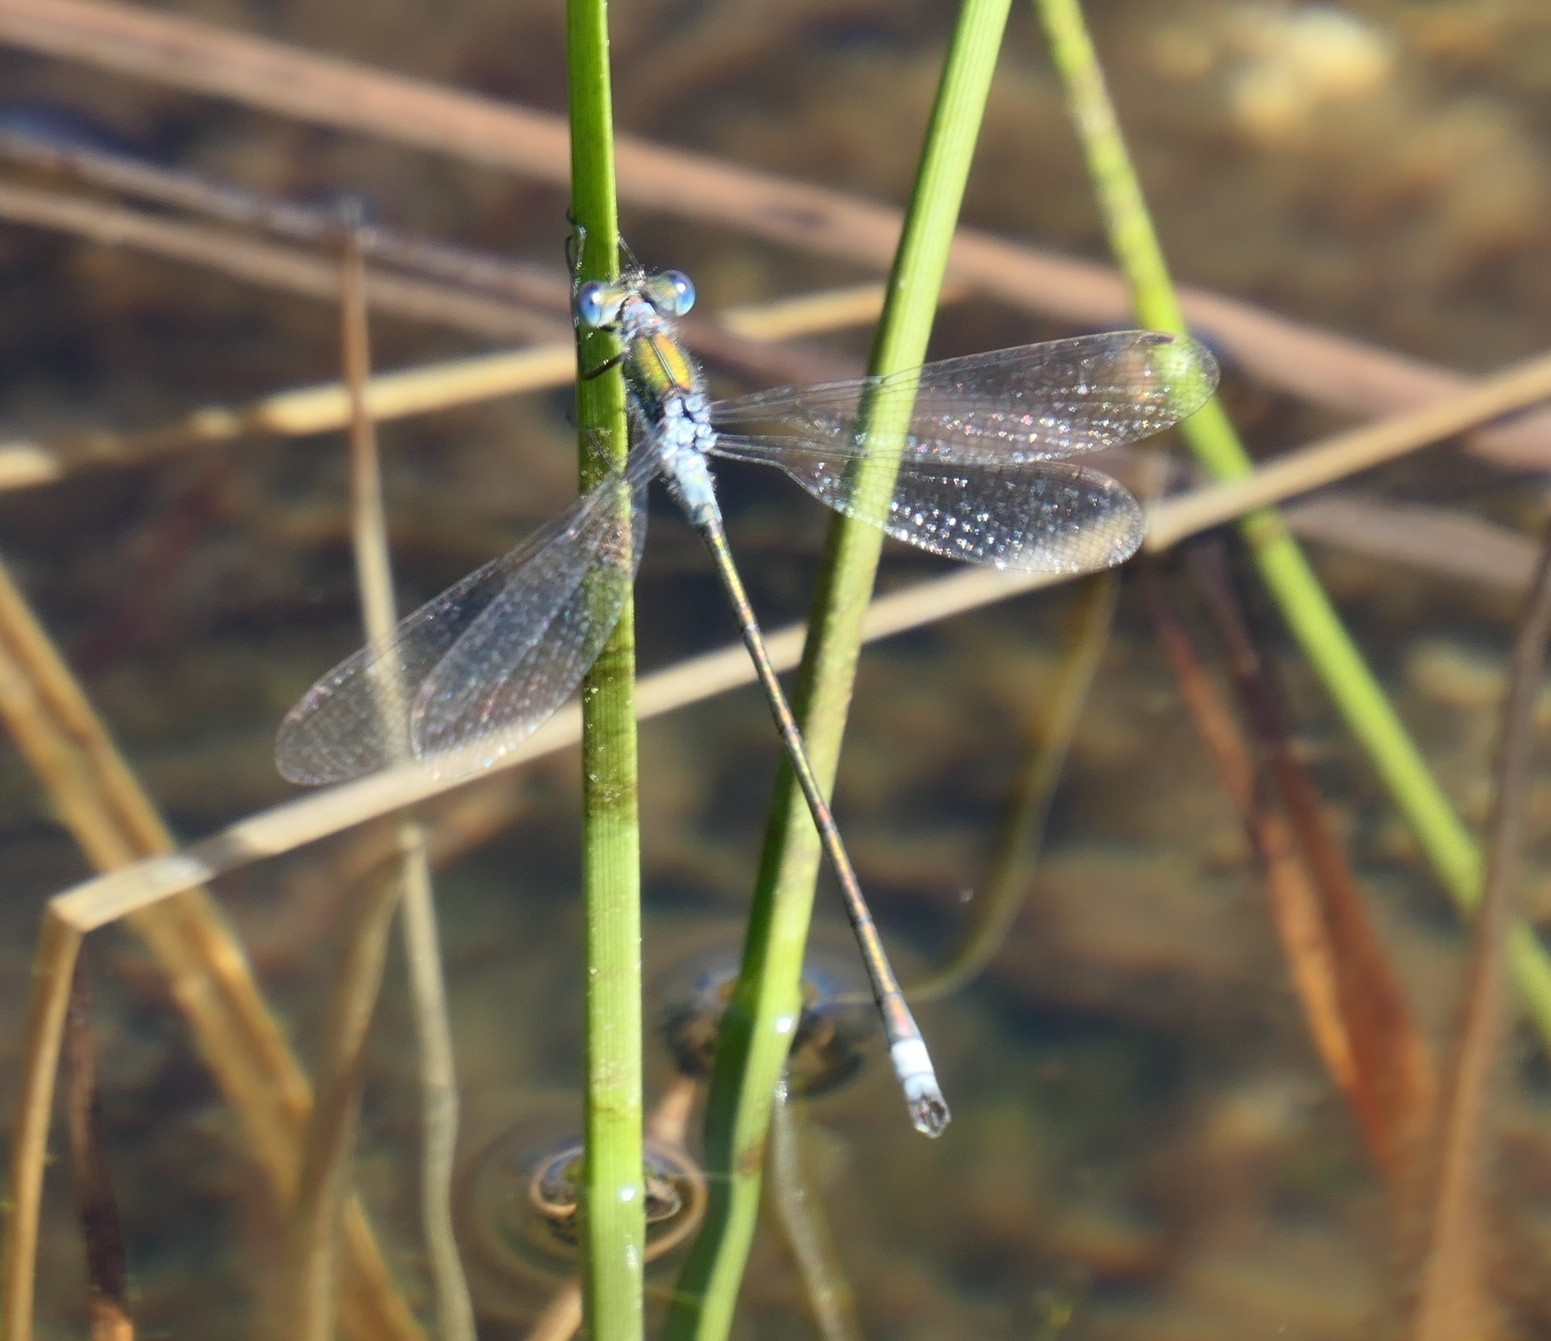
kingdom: Animalia
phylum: Arthropoda
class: Insecta
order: Odonata
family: Lestidae
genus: Lestes
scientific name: Lestes sponsa
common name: Common spreadwing
